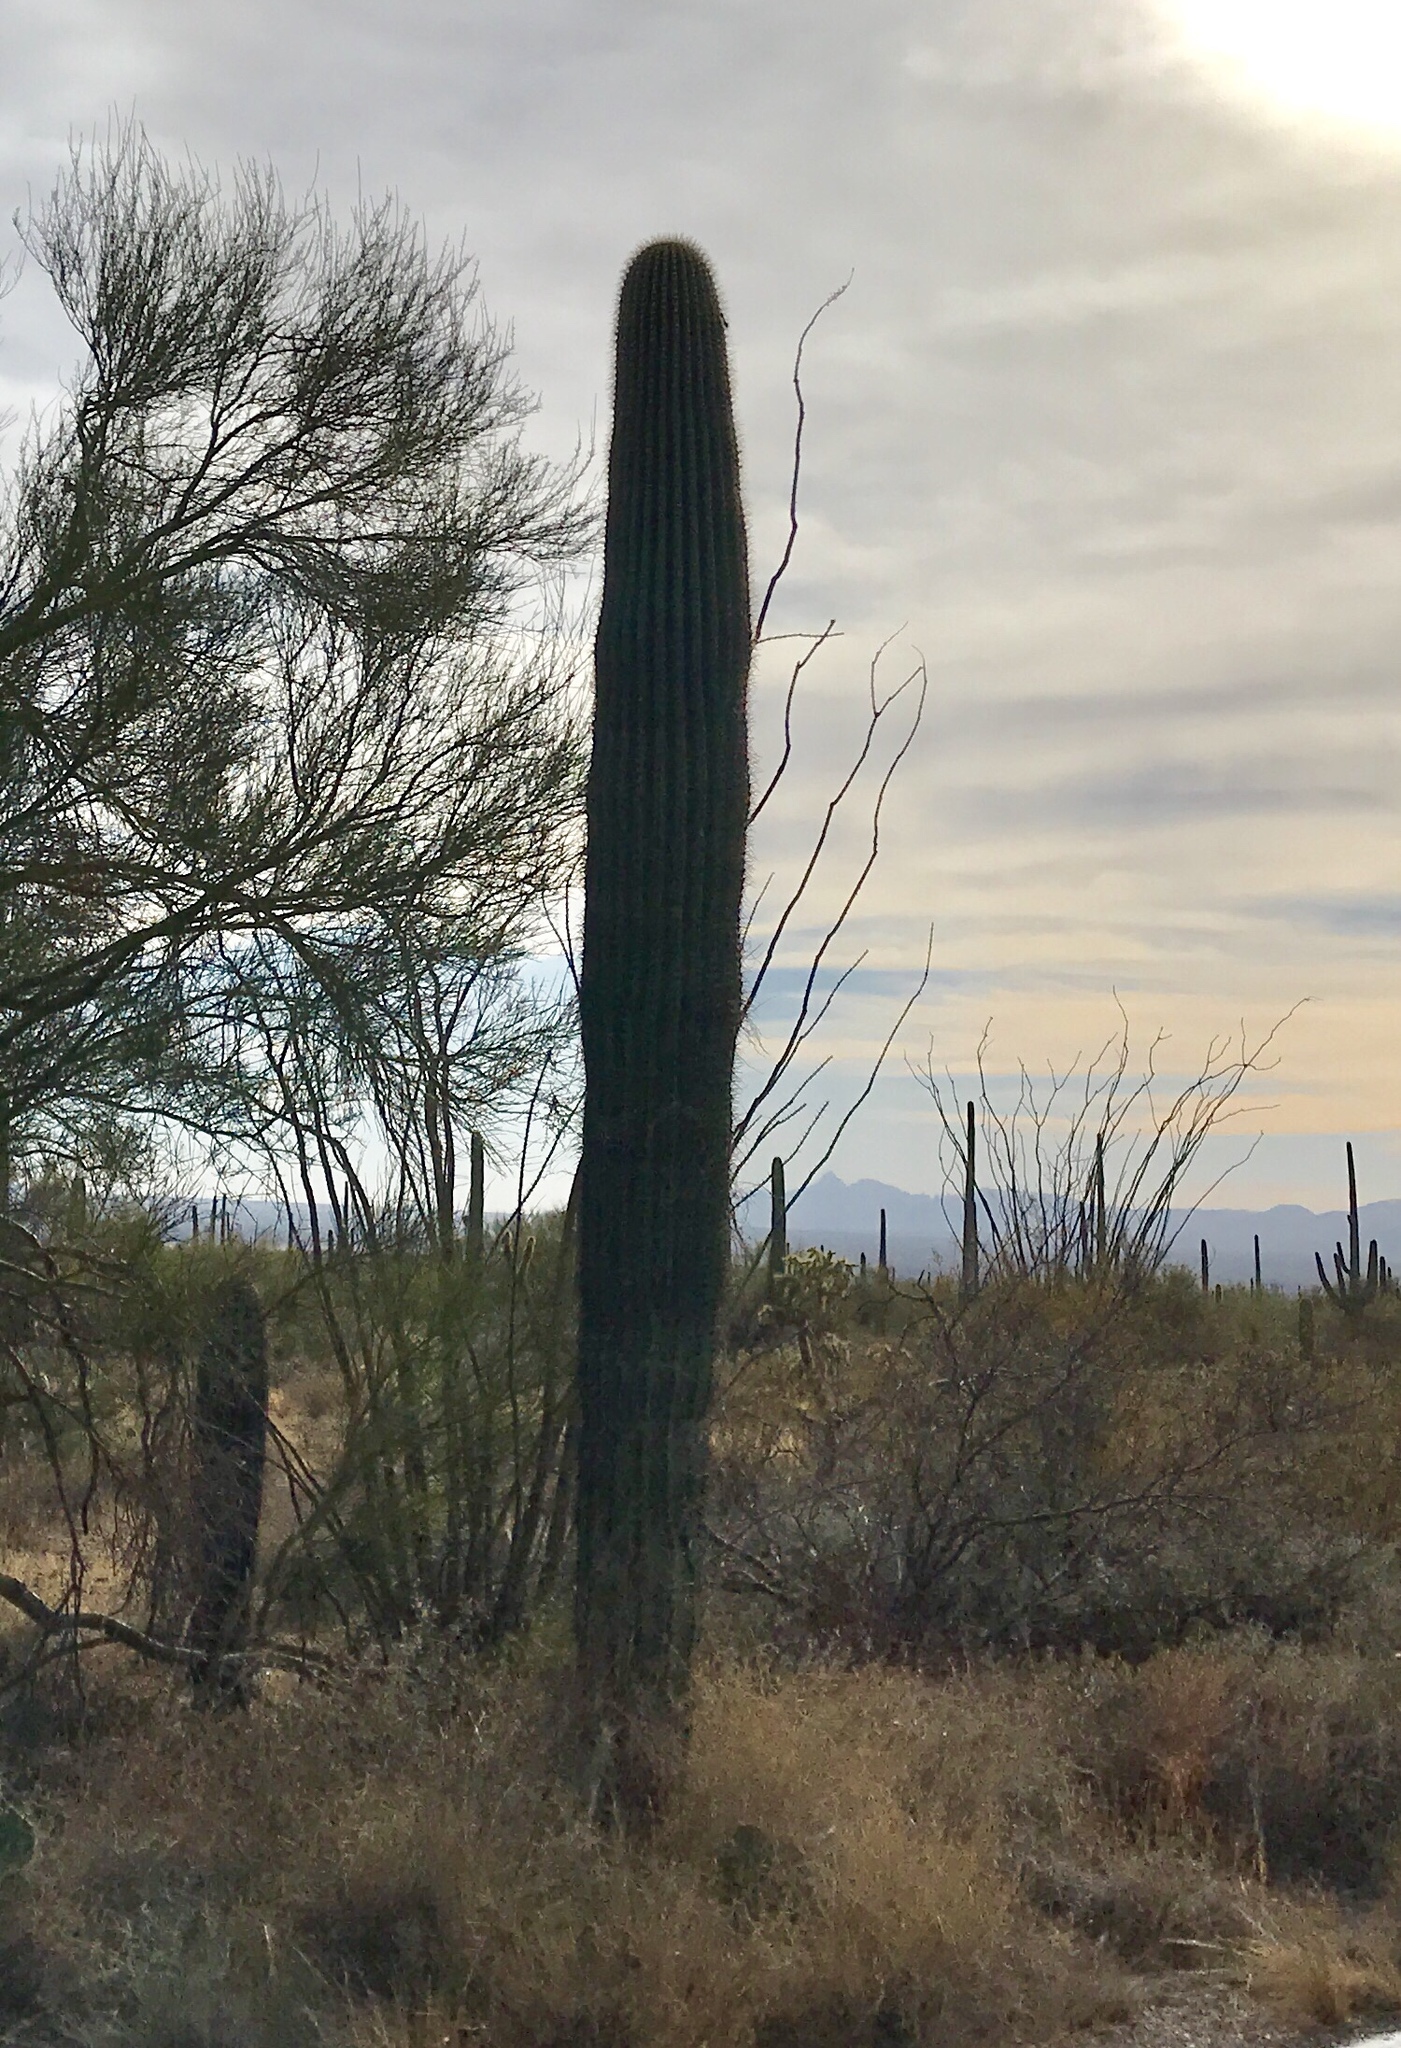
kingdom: Plantae
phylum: Tracheophyta
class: Magnoliopsida
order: Caryophyllales
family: Cactaceae
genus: Carnegiea
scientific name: Carnegiea gigantea
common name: Saguaro
